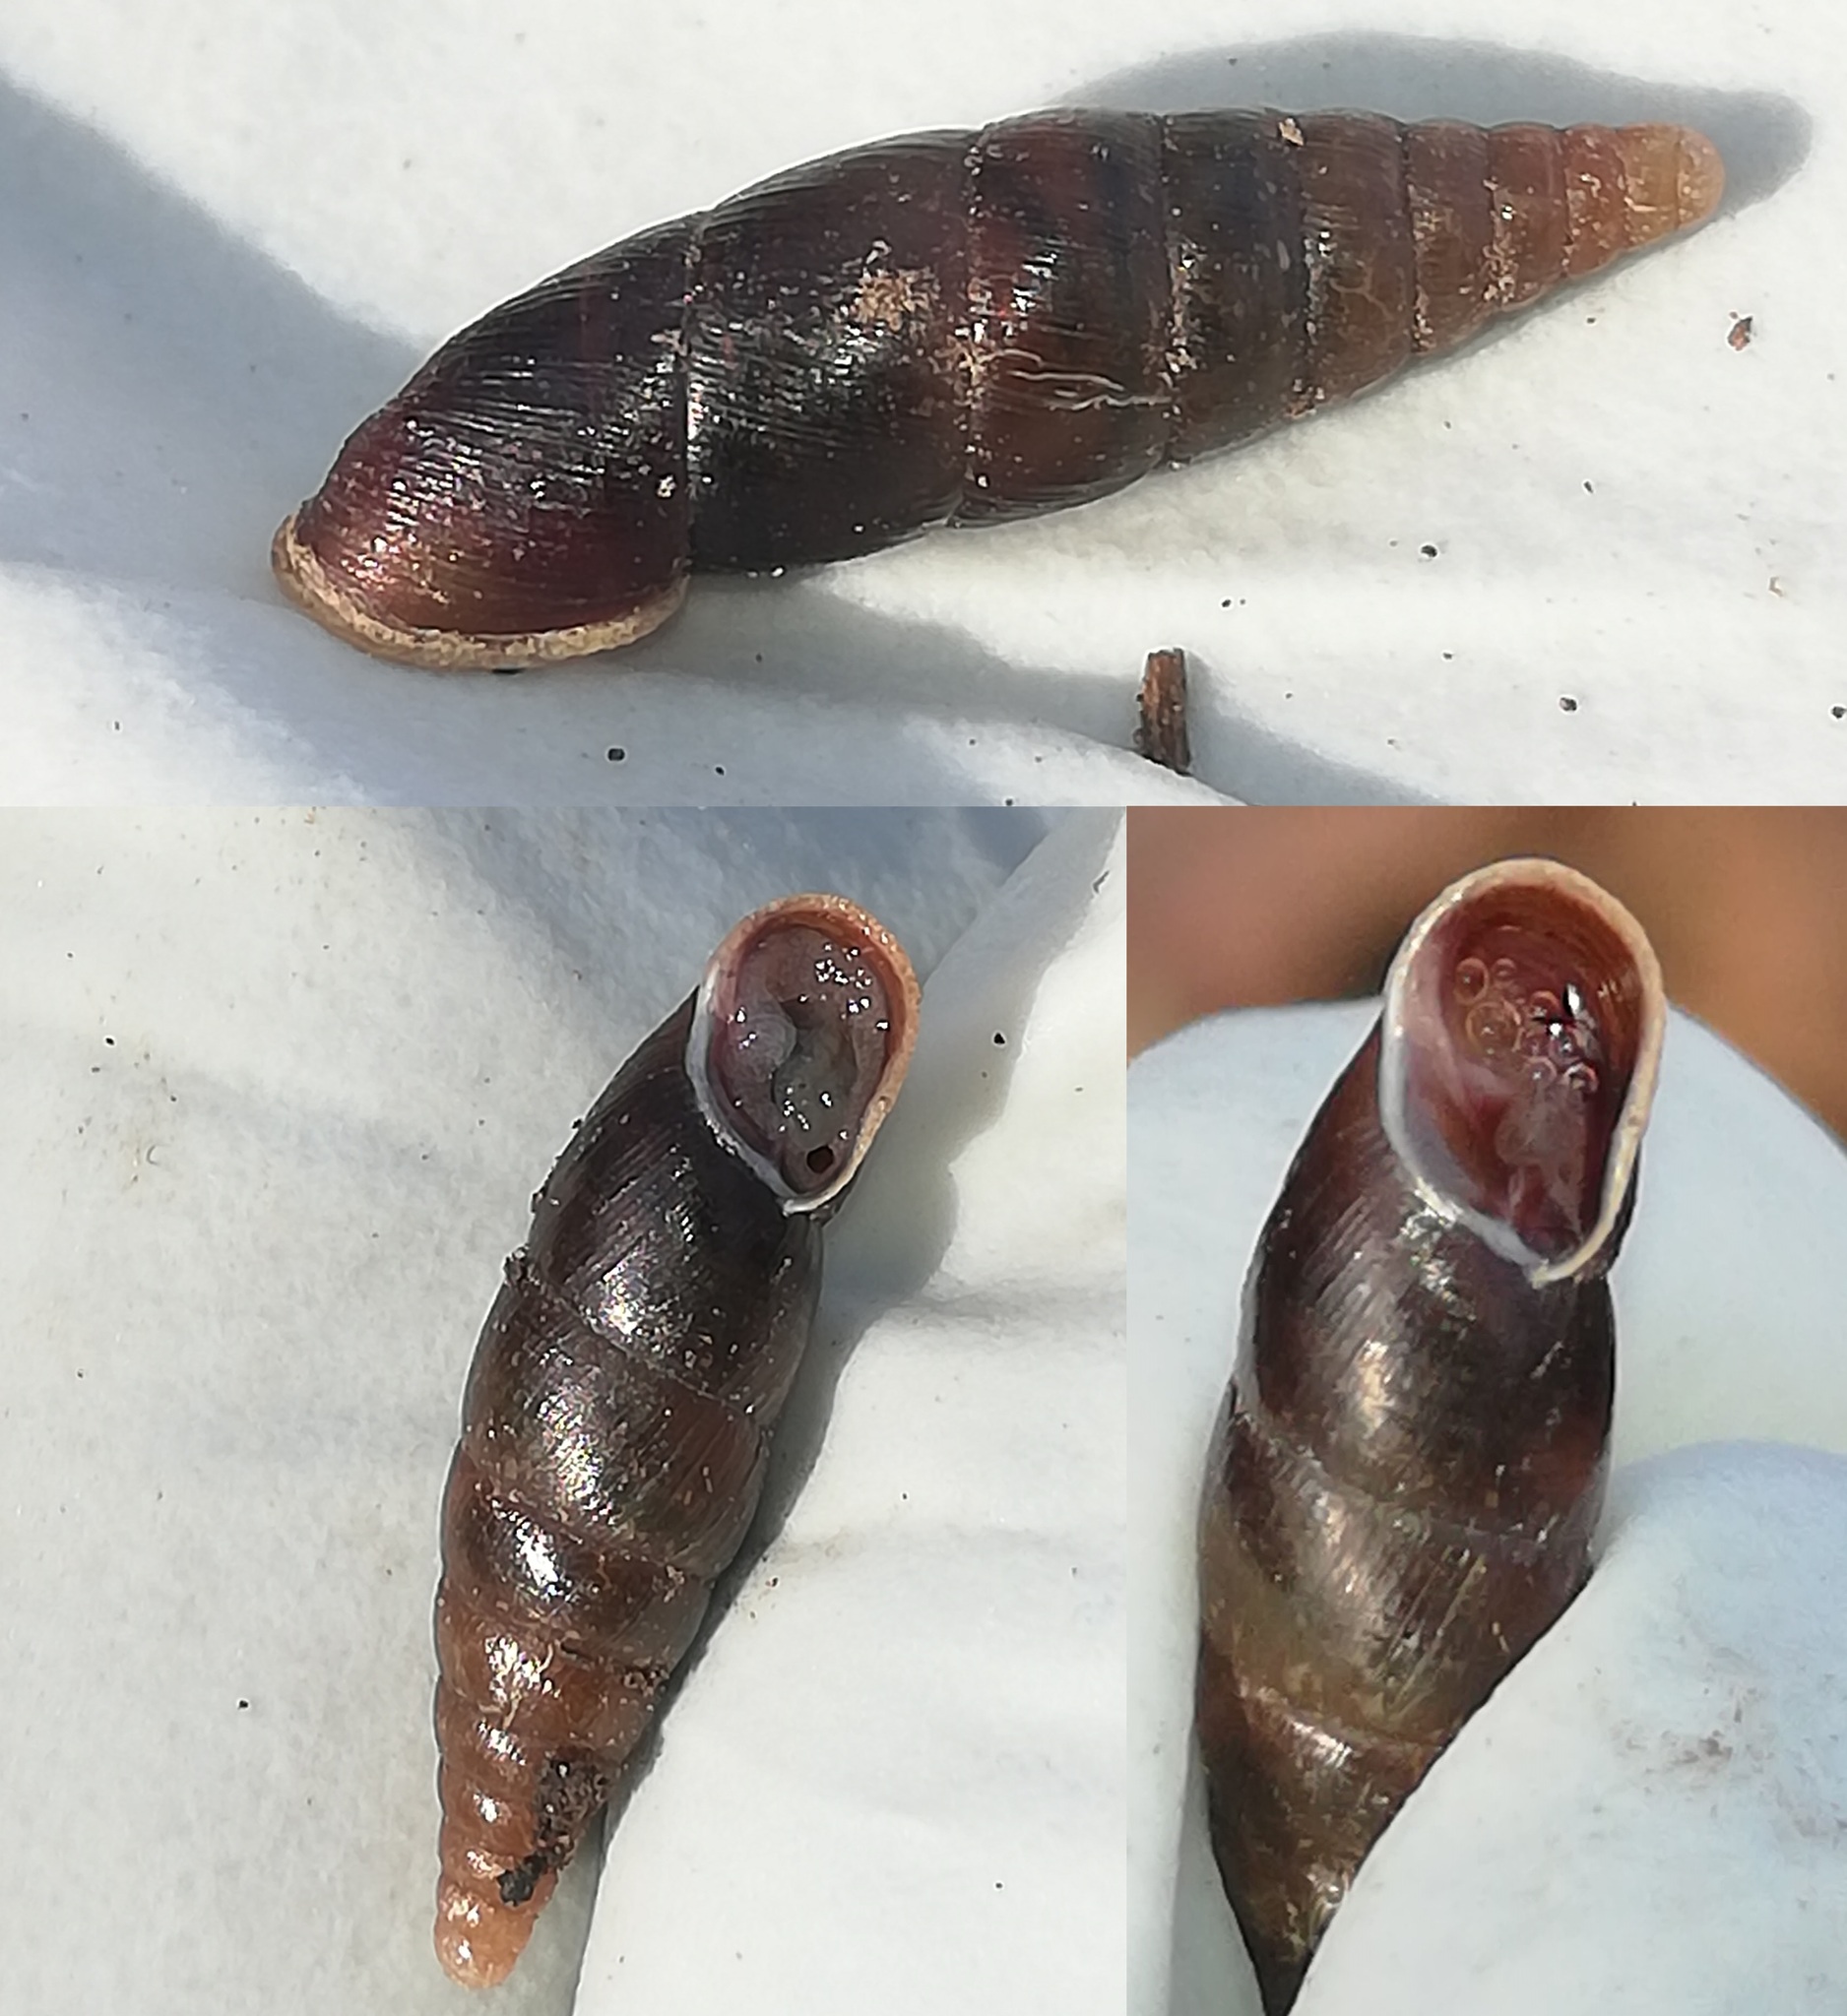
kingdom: Animalia
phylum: Mollusca
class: Gastropoda
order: Stylommatophora
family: Clausiliidae
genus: Cochlodina
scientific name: Cochlodina laminata
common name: Plaited door snail
